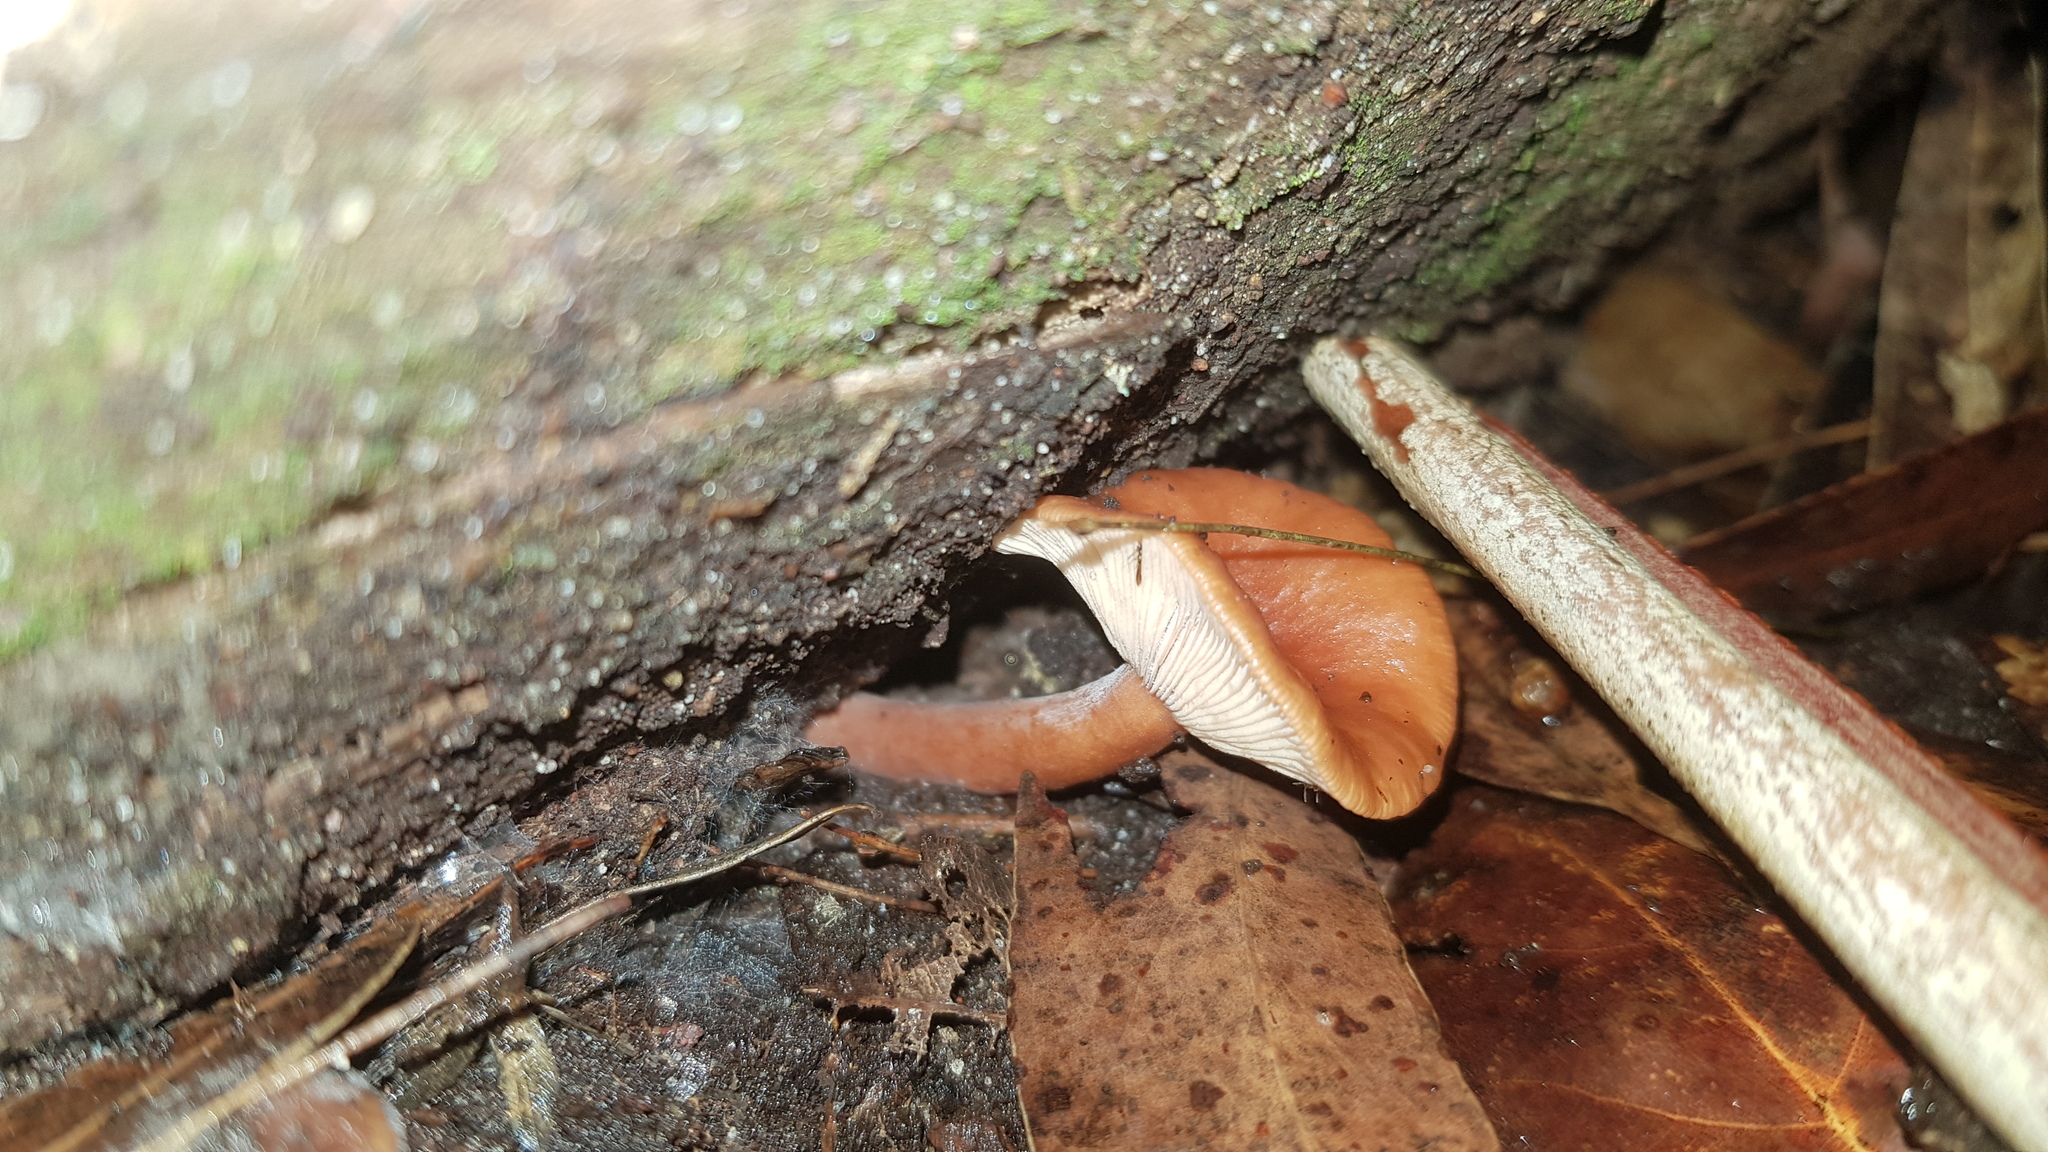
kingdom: Fungi
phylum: Basidiomycota
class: Agaricomycetes
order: Russulales
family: Russulaceae
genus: Lactarius
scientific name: Lactarius eucalypti
